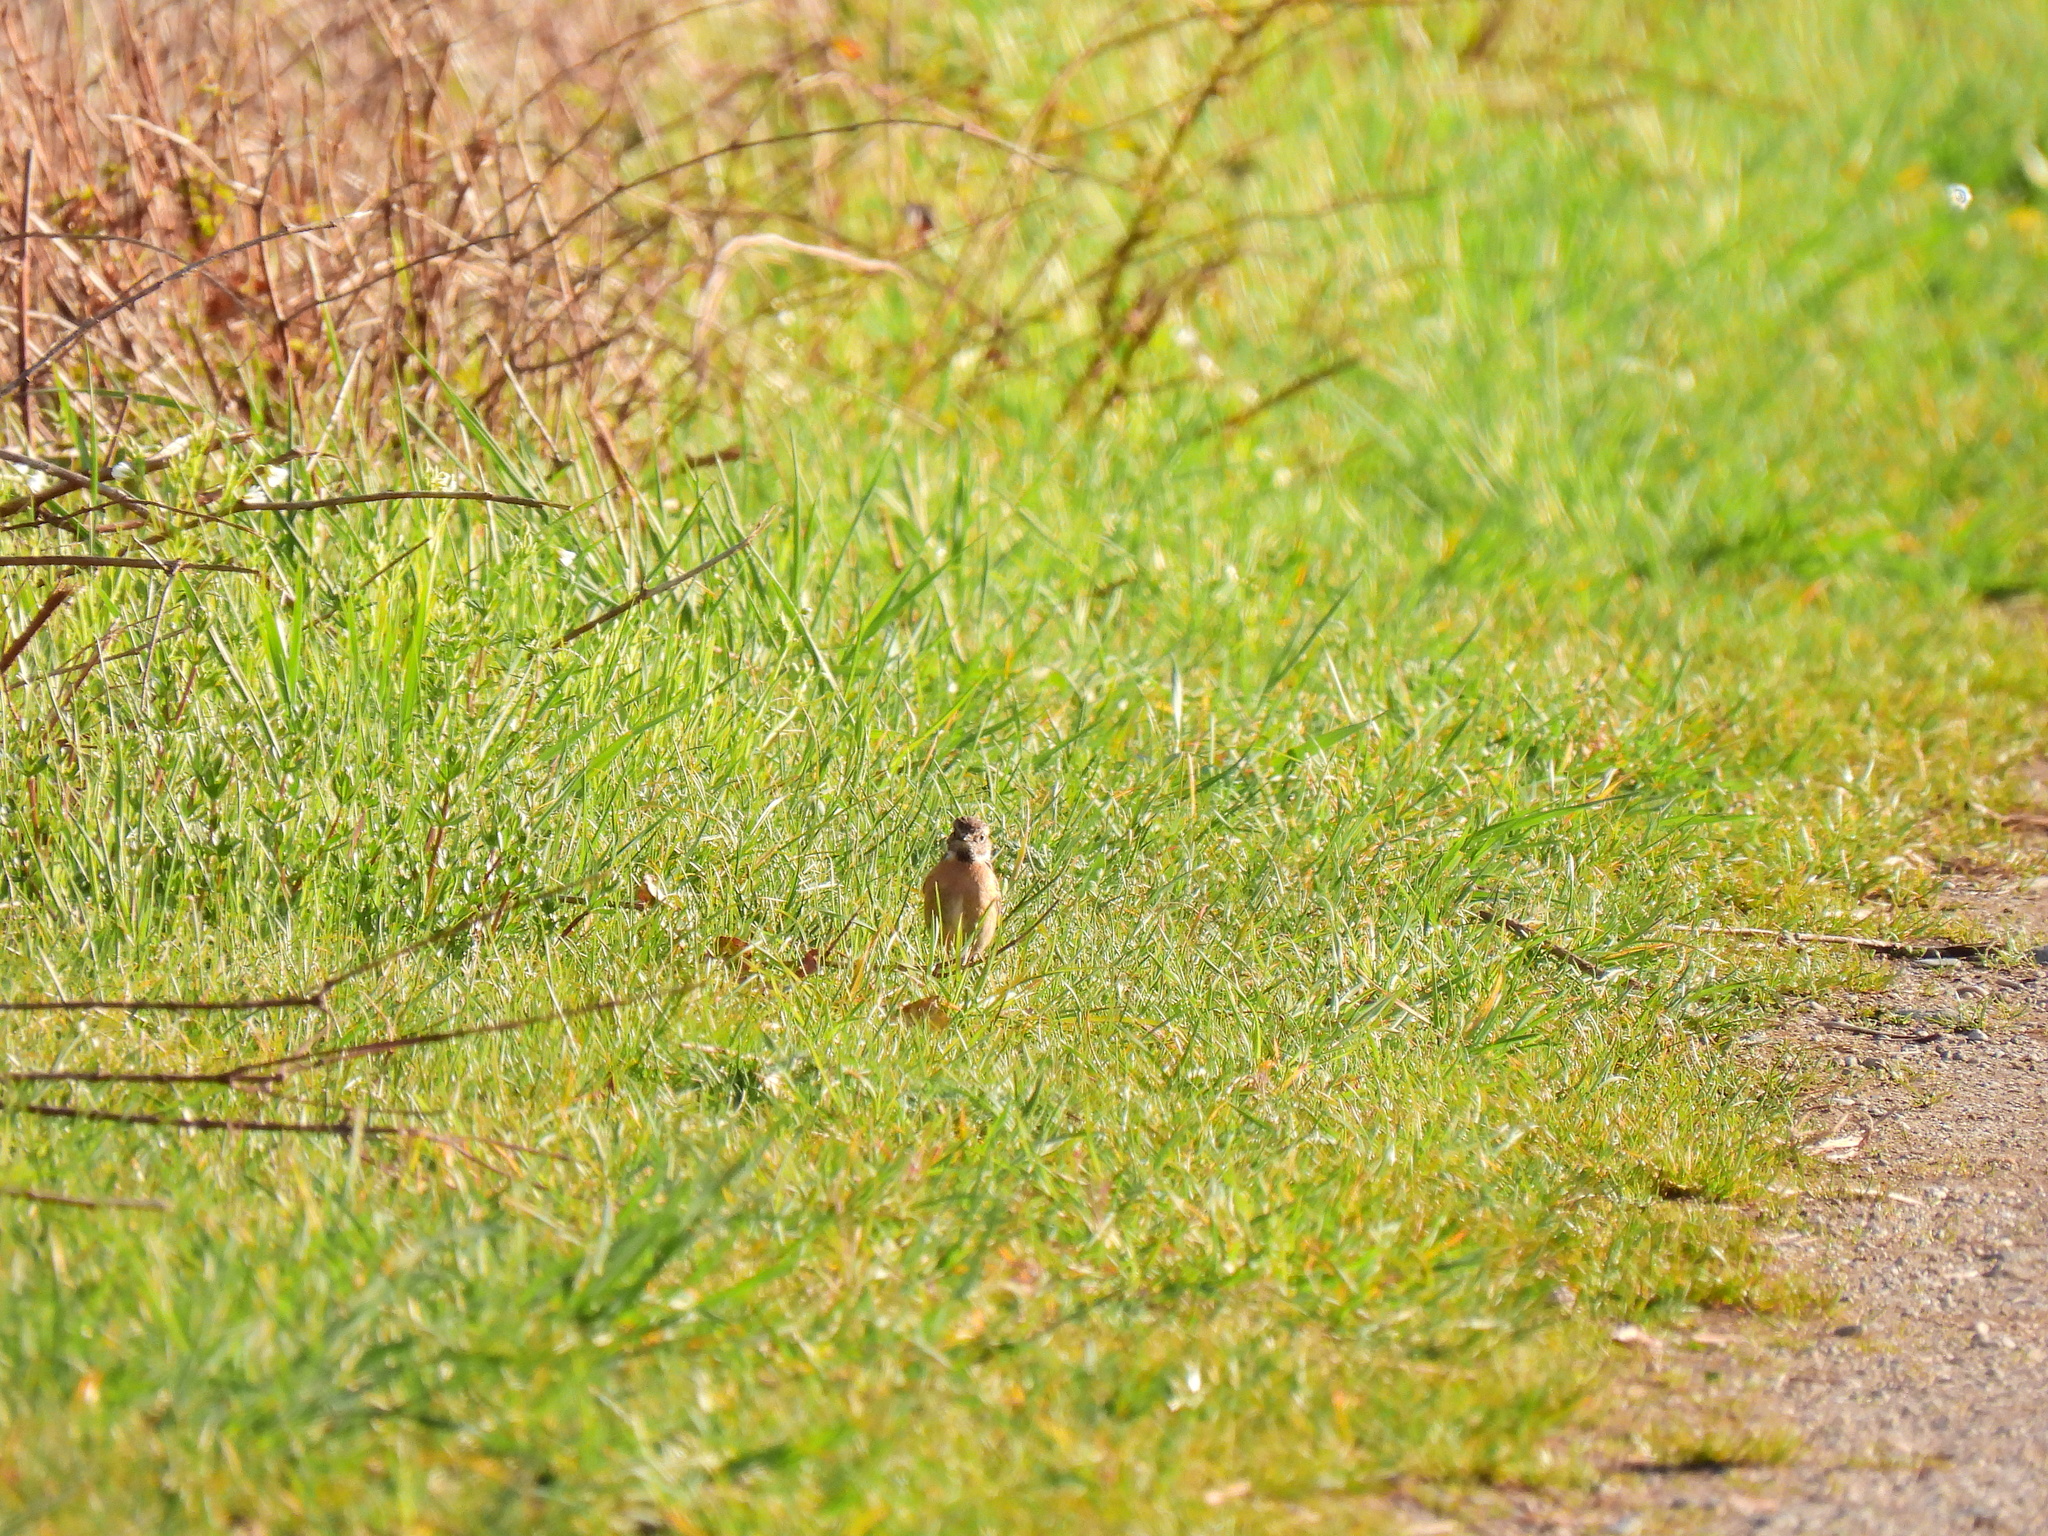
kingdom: Animalia
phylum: Chordata
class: Aves
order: Passeriformes
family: Muscicapidae
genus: Saxicola
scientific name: Saxicola rubicola
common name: European stonechat
